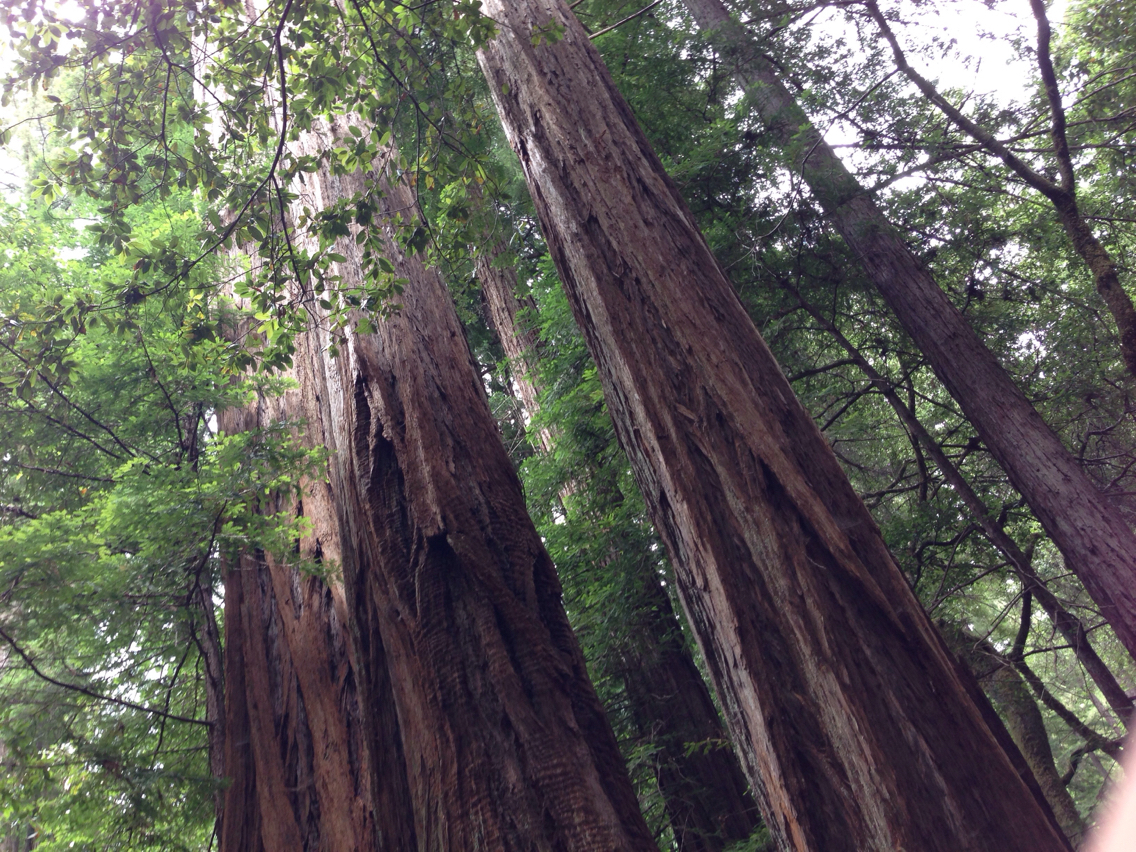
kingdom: Plantae
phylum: Tracheophyta
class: Pinopsida
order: Pinales
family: Cupressaceae
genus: Sequoia
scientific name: Sequoia sempervirens
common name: Coast redwood
